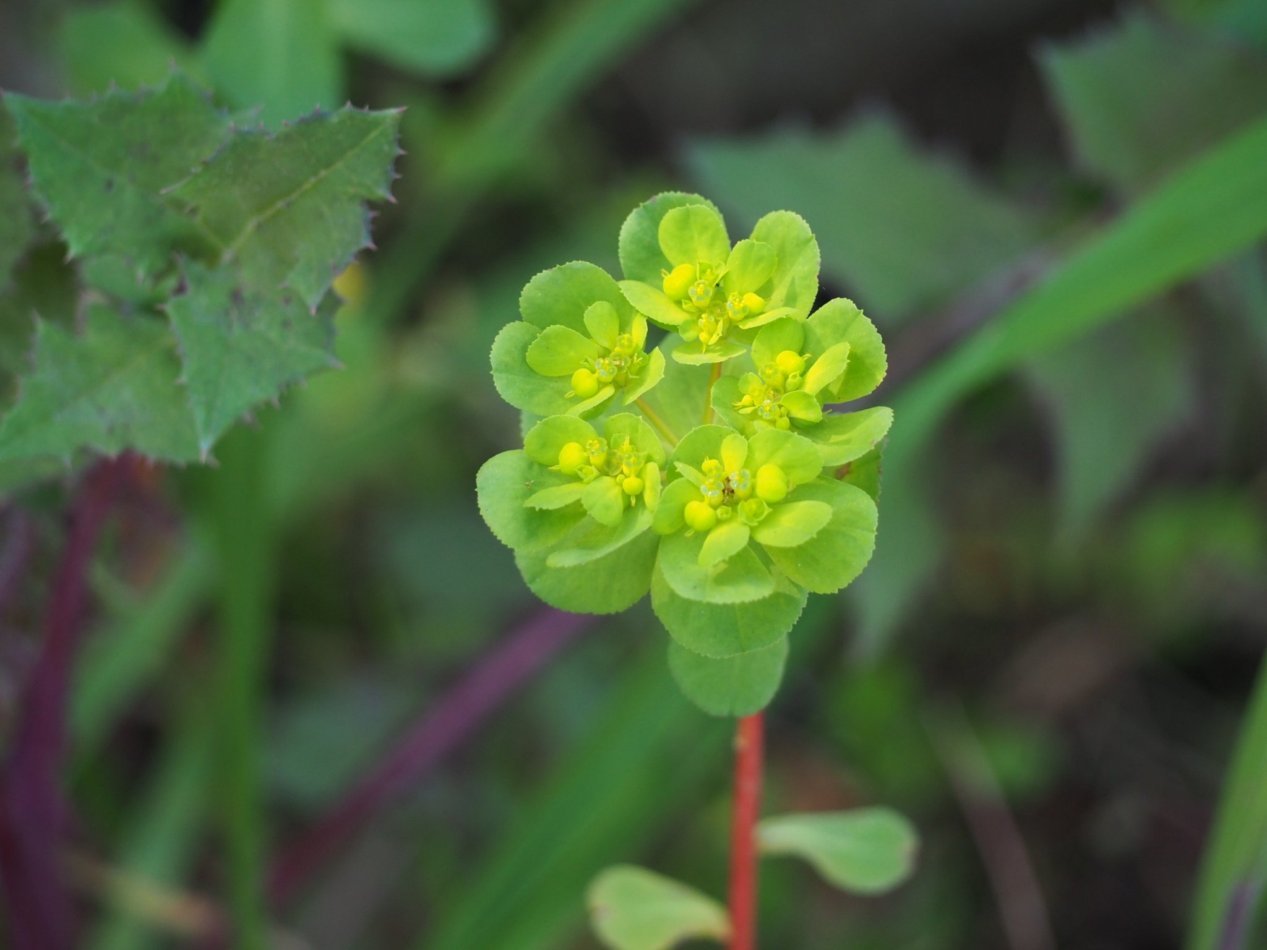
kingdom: Plantae
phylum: Tracheophyta
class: Magnoliopsida
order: Malpighiales
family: Euphorbiaceae
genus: Euphorbia
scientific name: Euphorbia helioscopia
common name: Sun spurge
